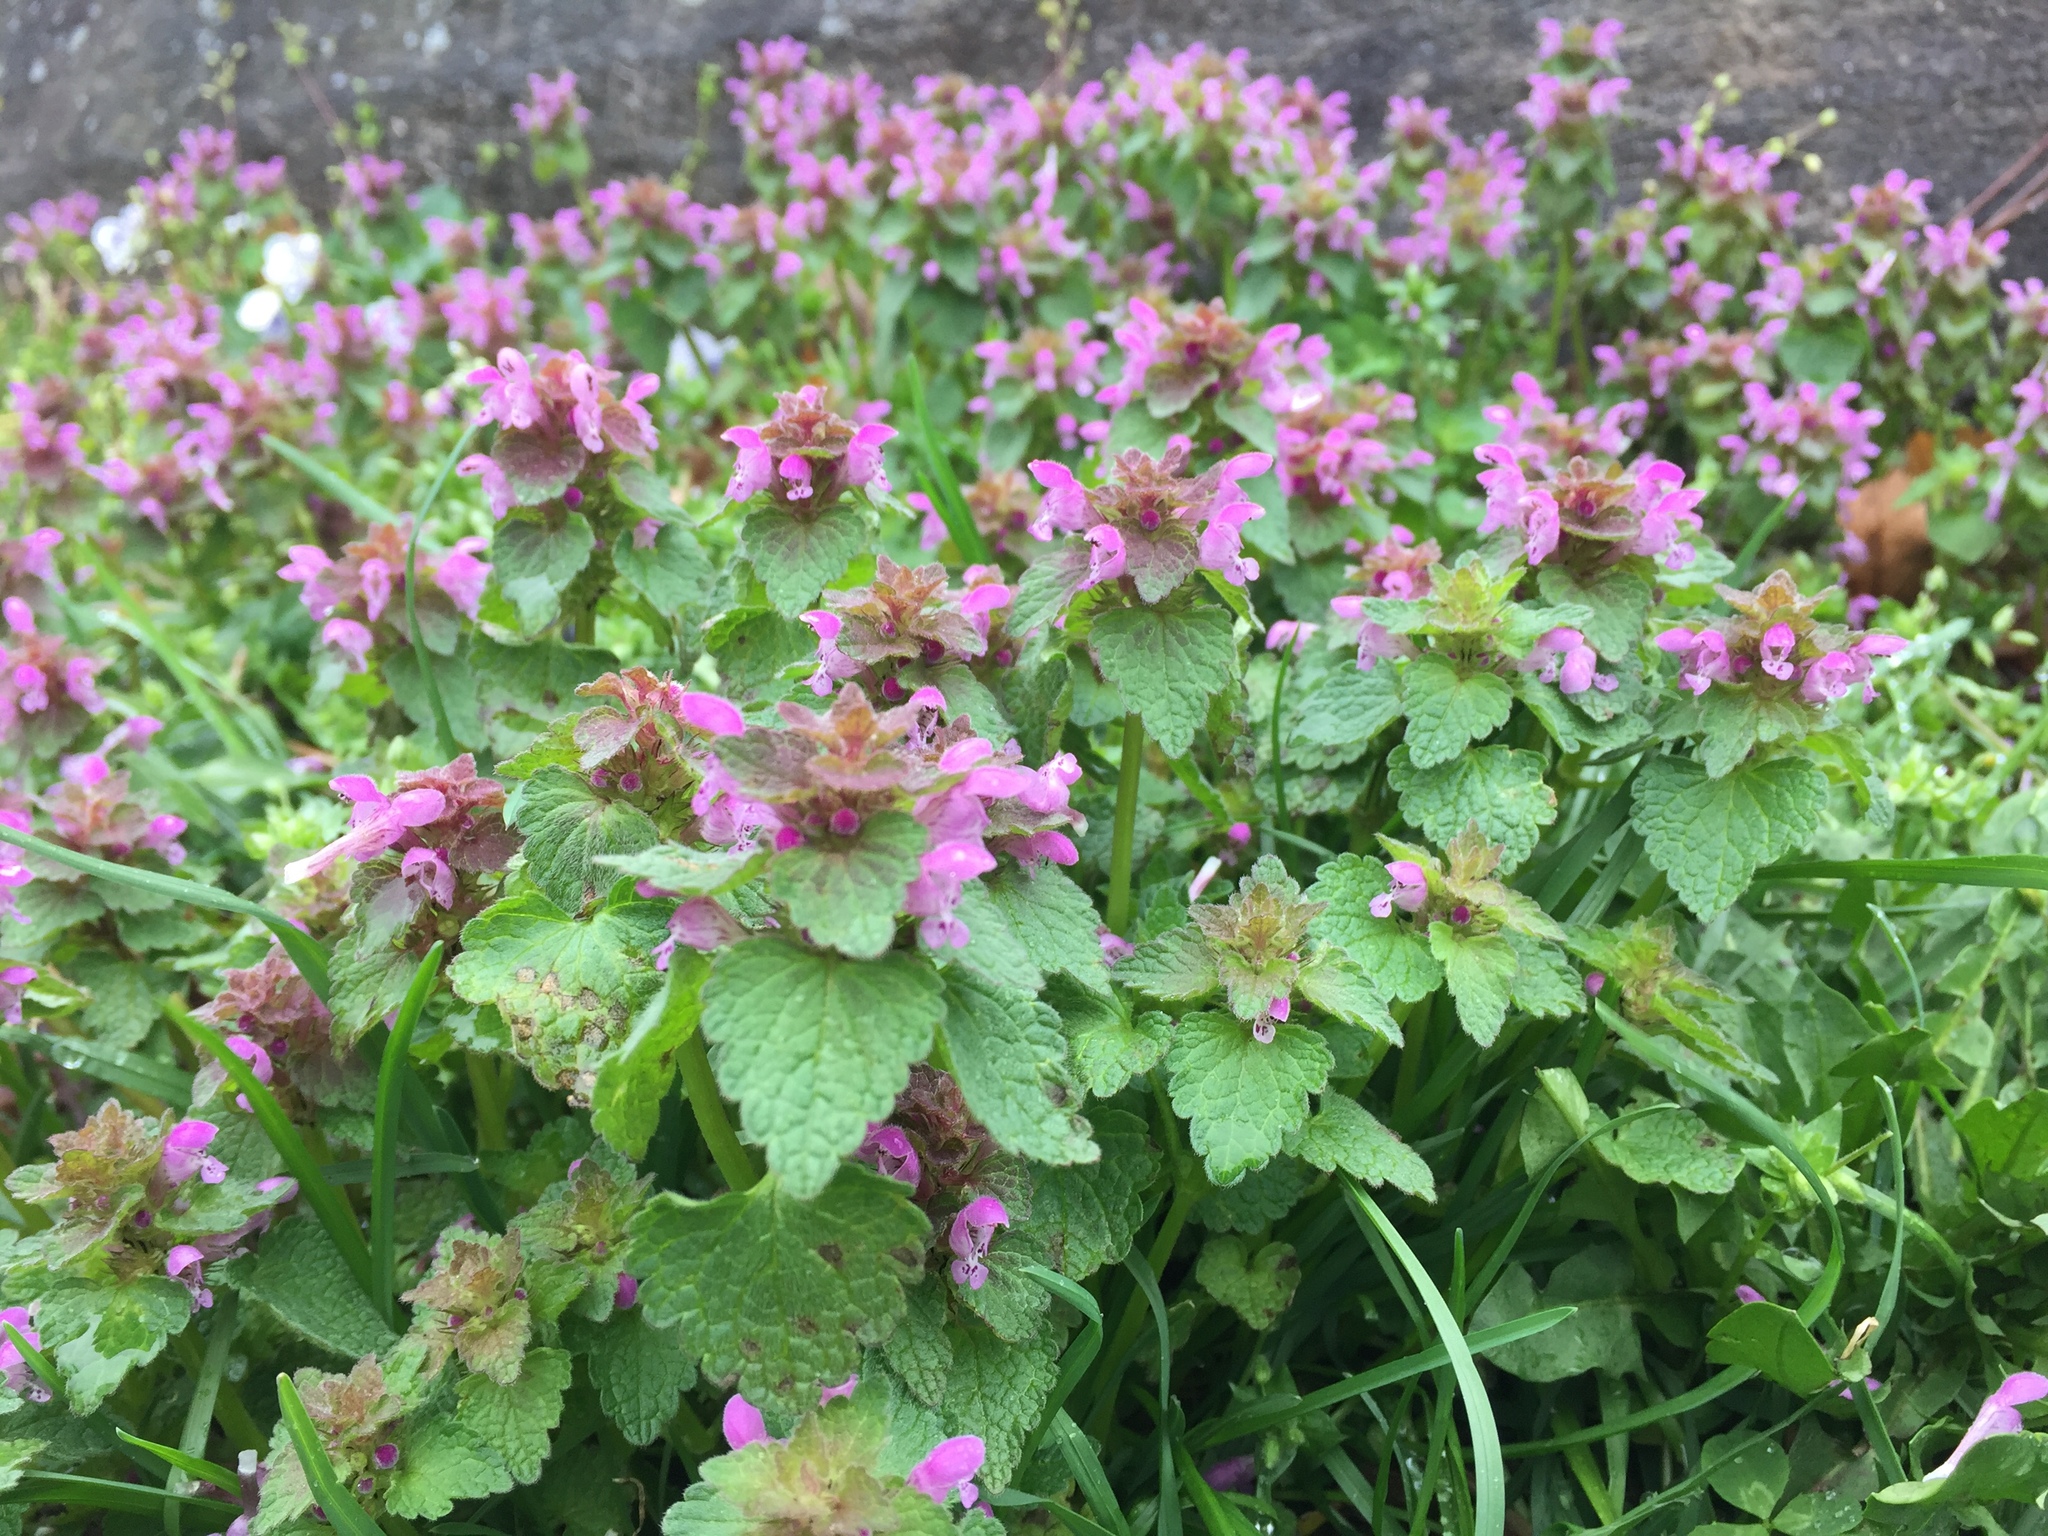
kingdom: Plantae
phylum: Tracheophyta
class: Magnoliopsida
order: Lamiales
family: Lamiaceae
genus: Lamium
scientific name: Lamium purpureum
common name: Red dead-nettle
